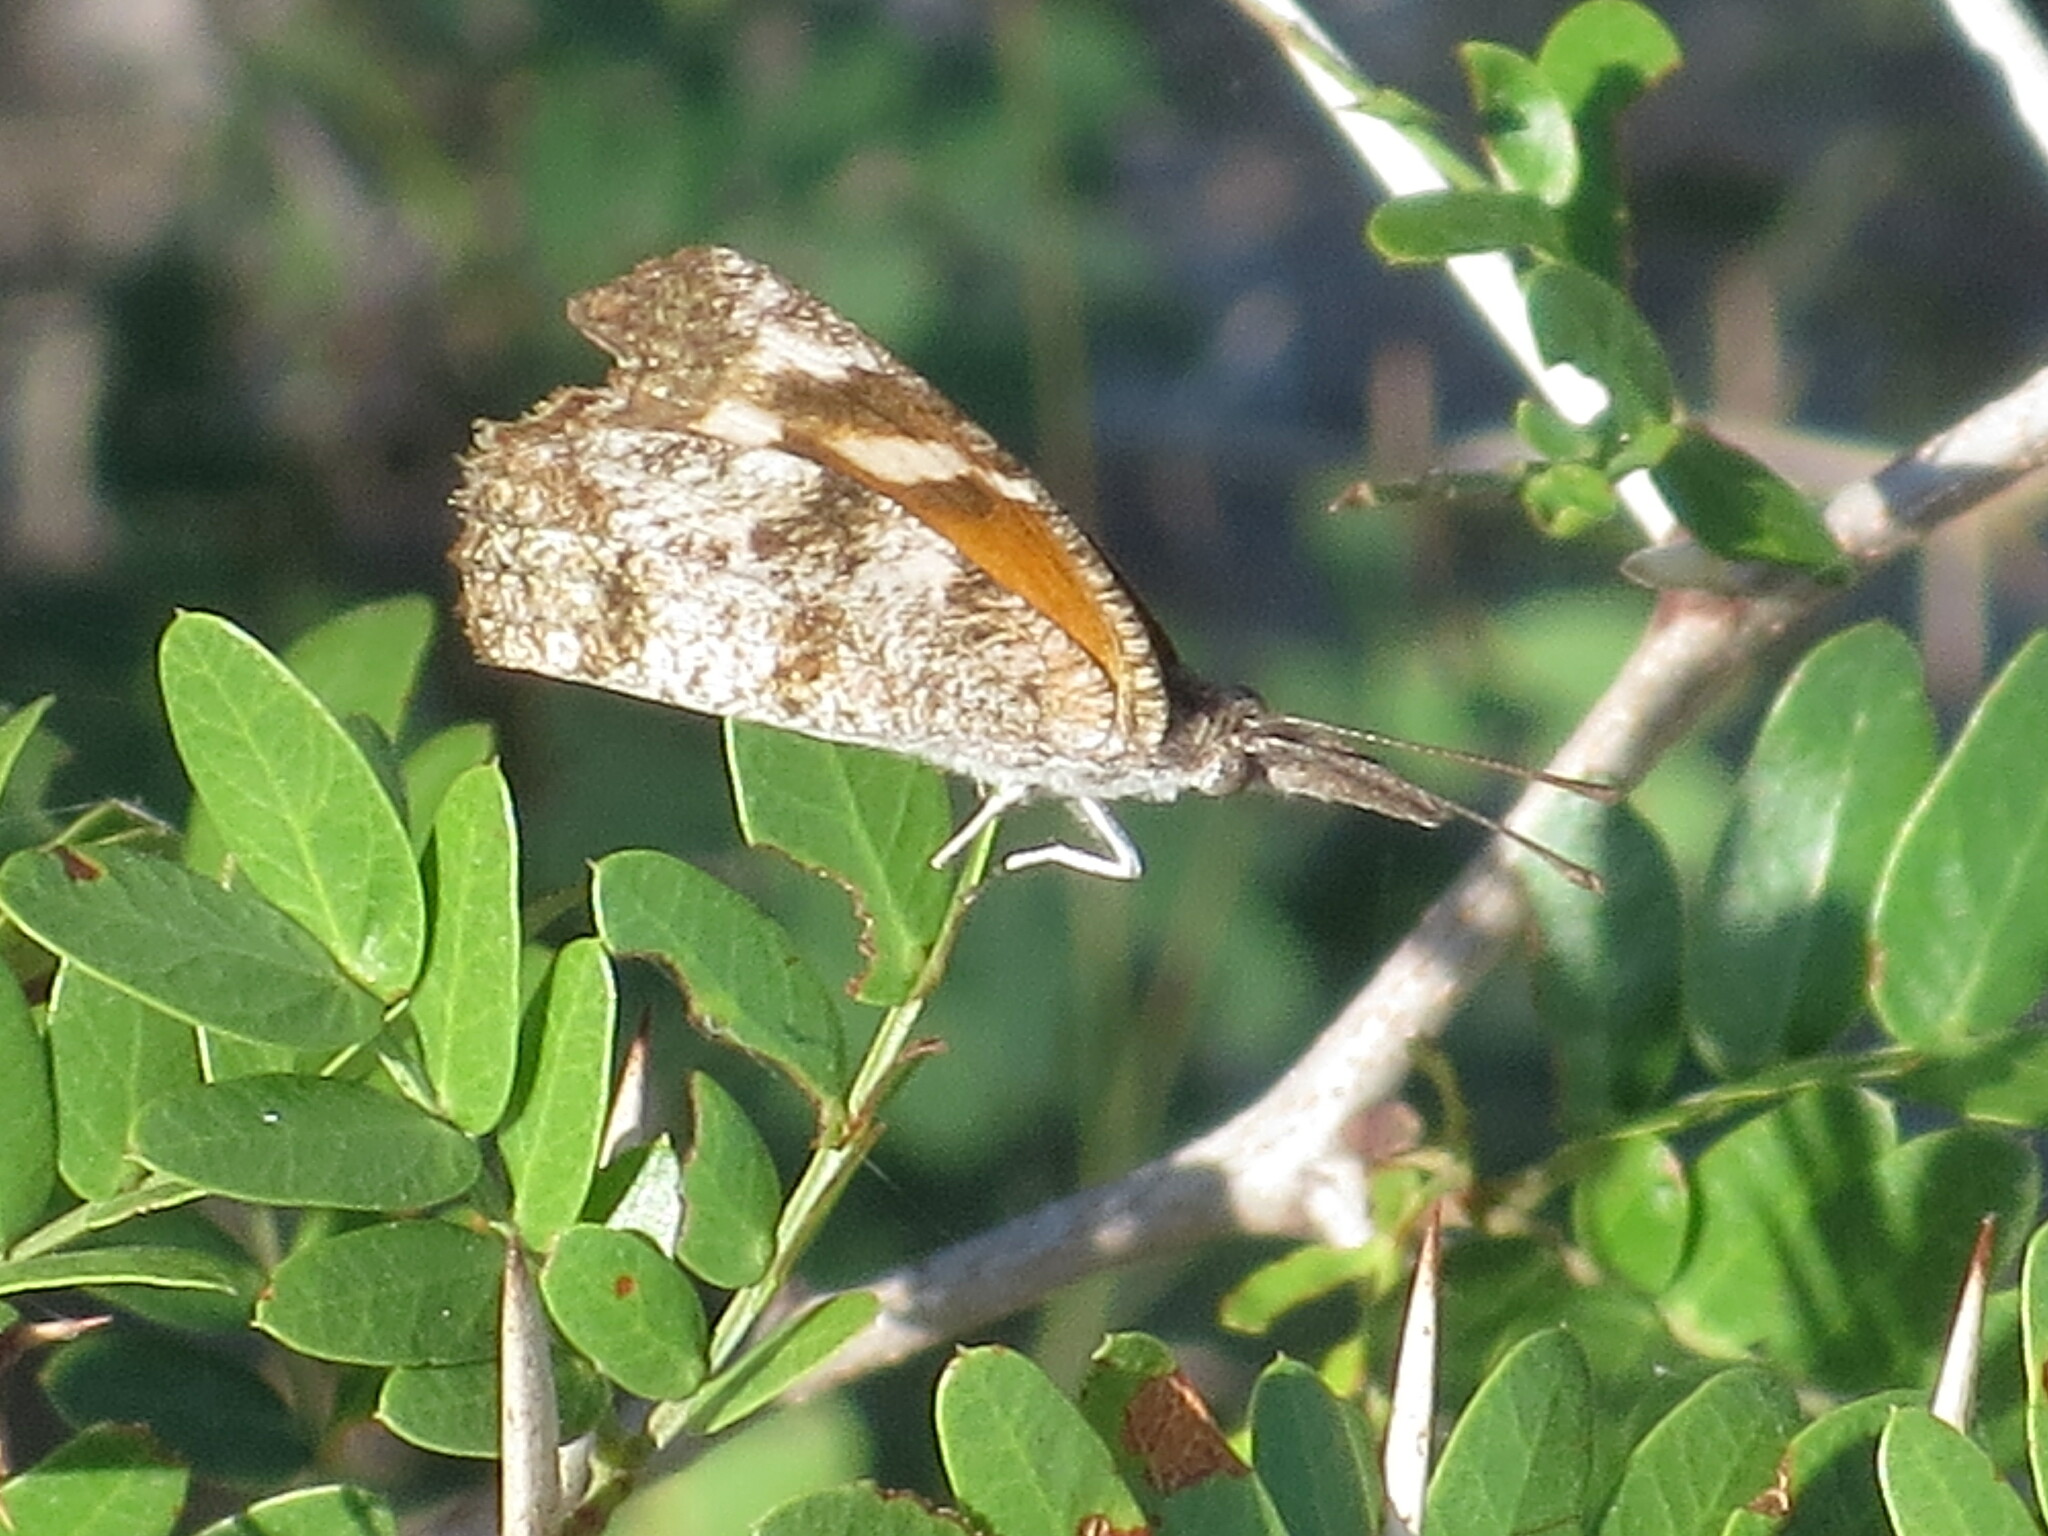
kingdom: Animalia
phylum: Arthropoda
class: Insecta
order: Lepidoptera
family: Nymphalidae
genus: Libytheana
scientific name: Libytheana carinenta
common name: American snout
